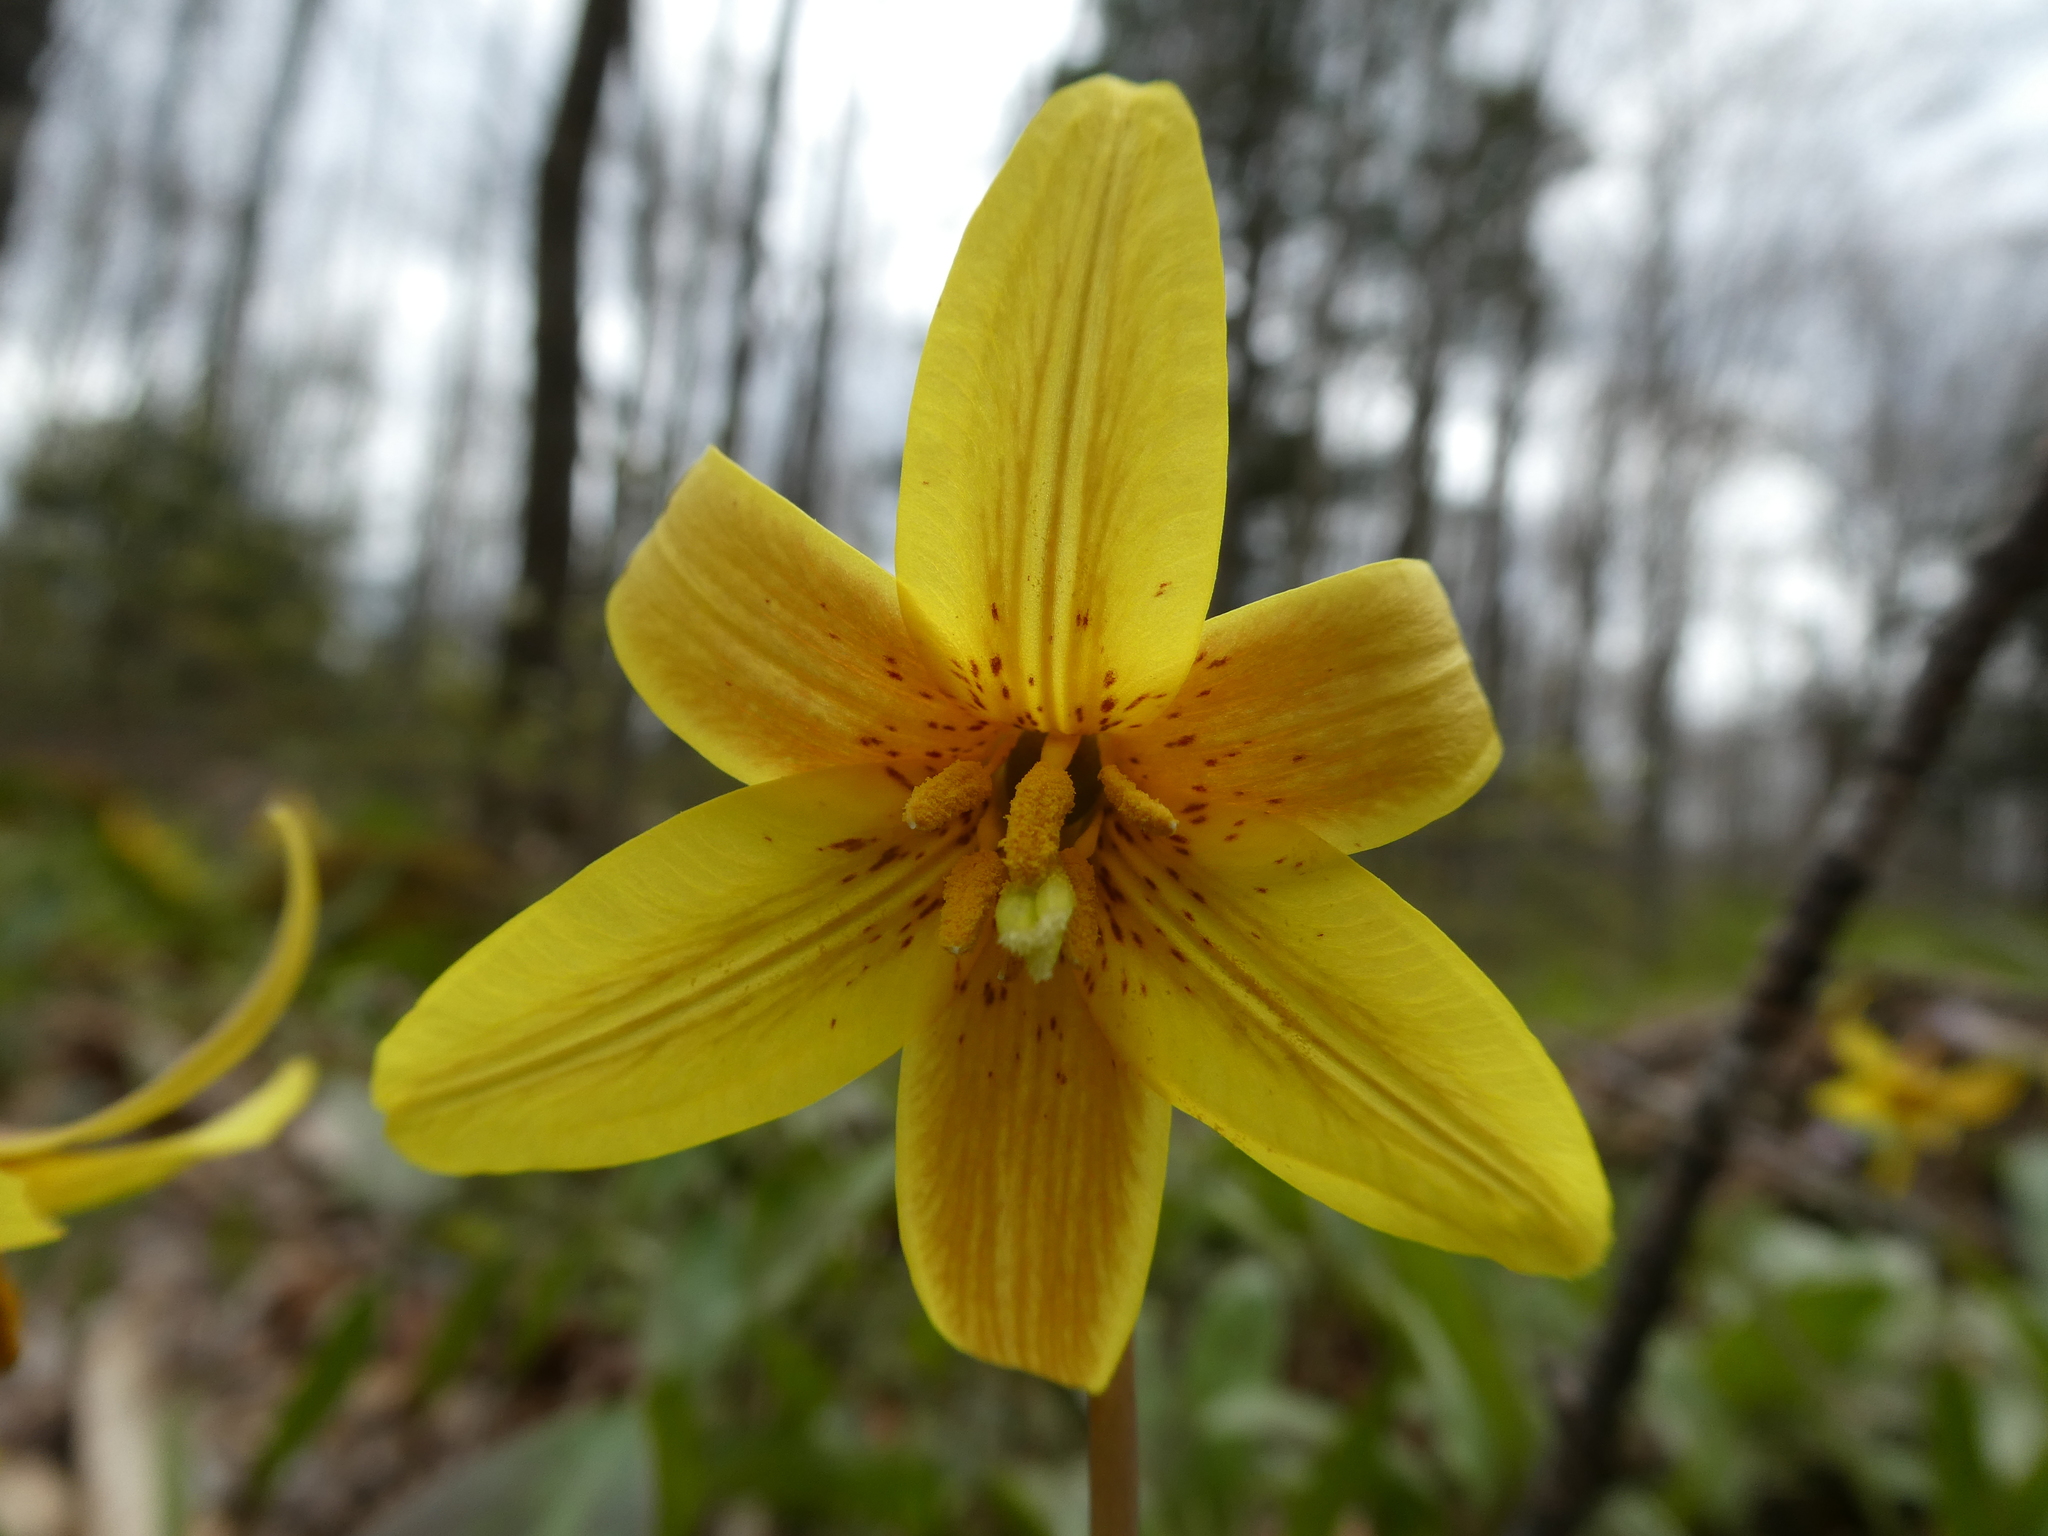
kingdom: Plantae
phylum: Tracheophyta
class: Liliopsida
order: Liliales
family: Liliaceae
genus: Erythronium
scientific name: Erythronium americanum
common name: Yellow adder's-tongue
